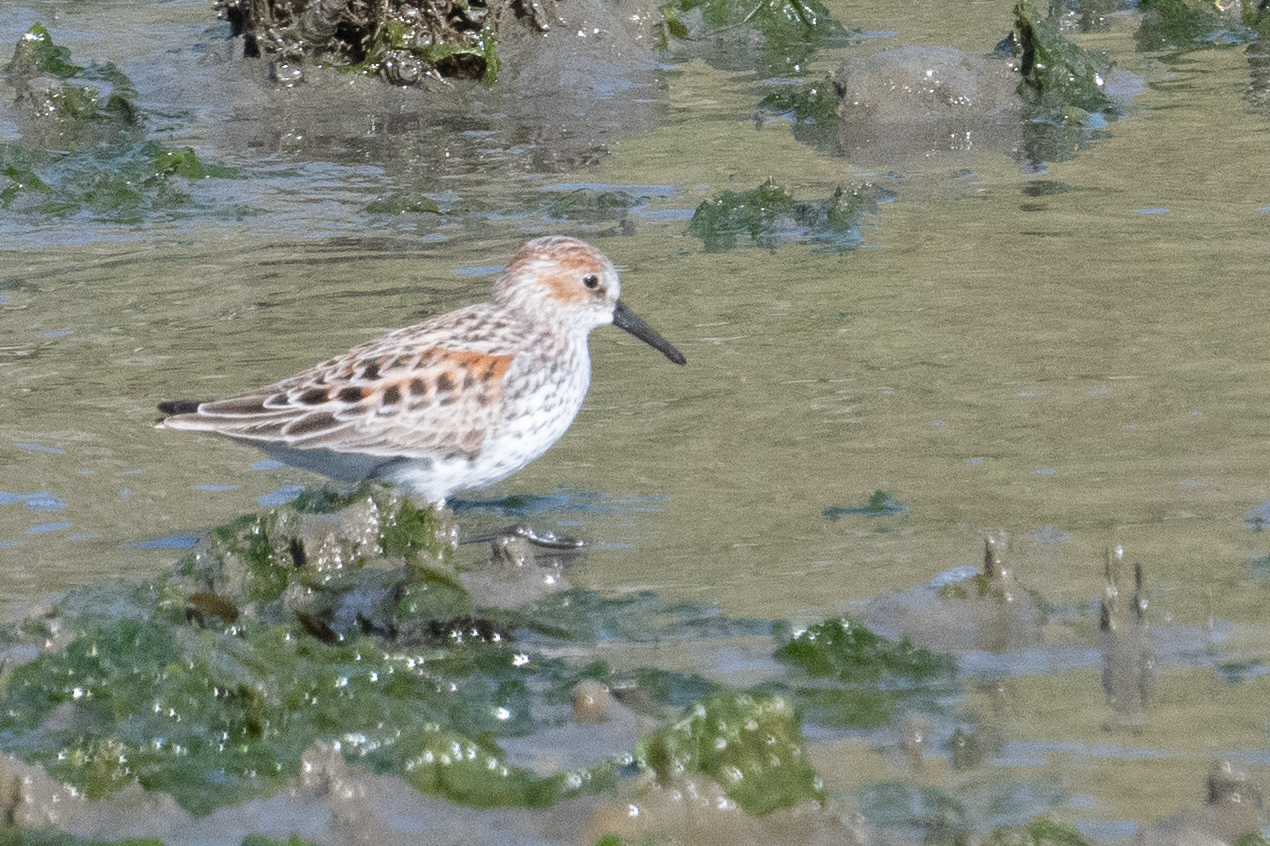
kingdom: Animalia
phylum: Chordata
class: Aves
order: Charadriiformes
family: Scolopacidae
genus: Calidris
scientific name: Calidris mauri
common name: Western sandpiper
